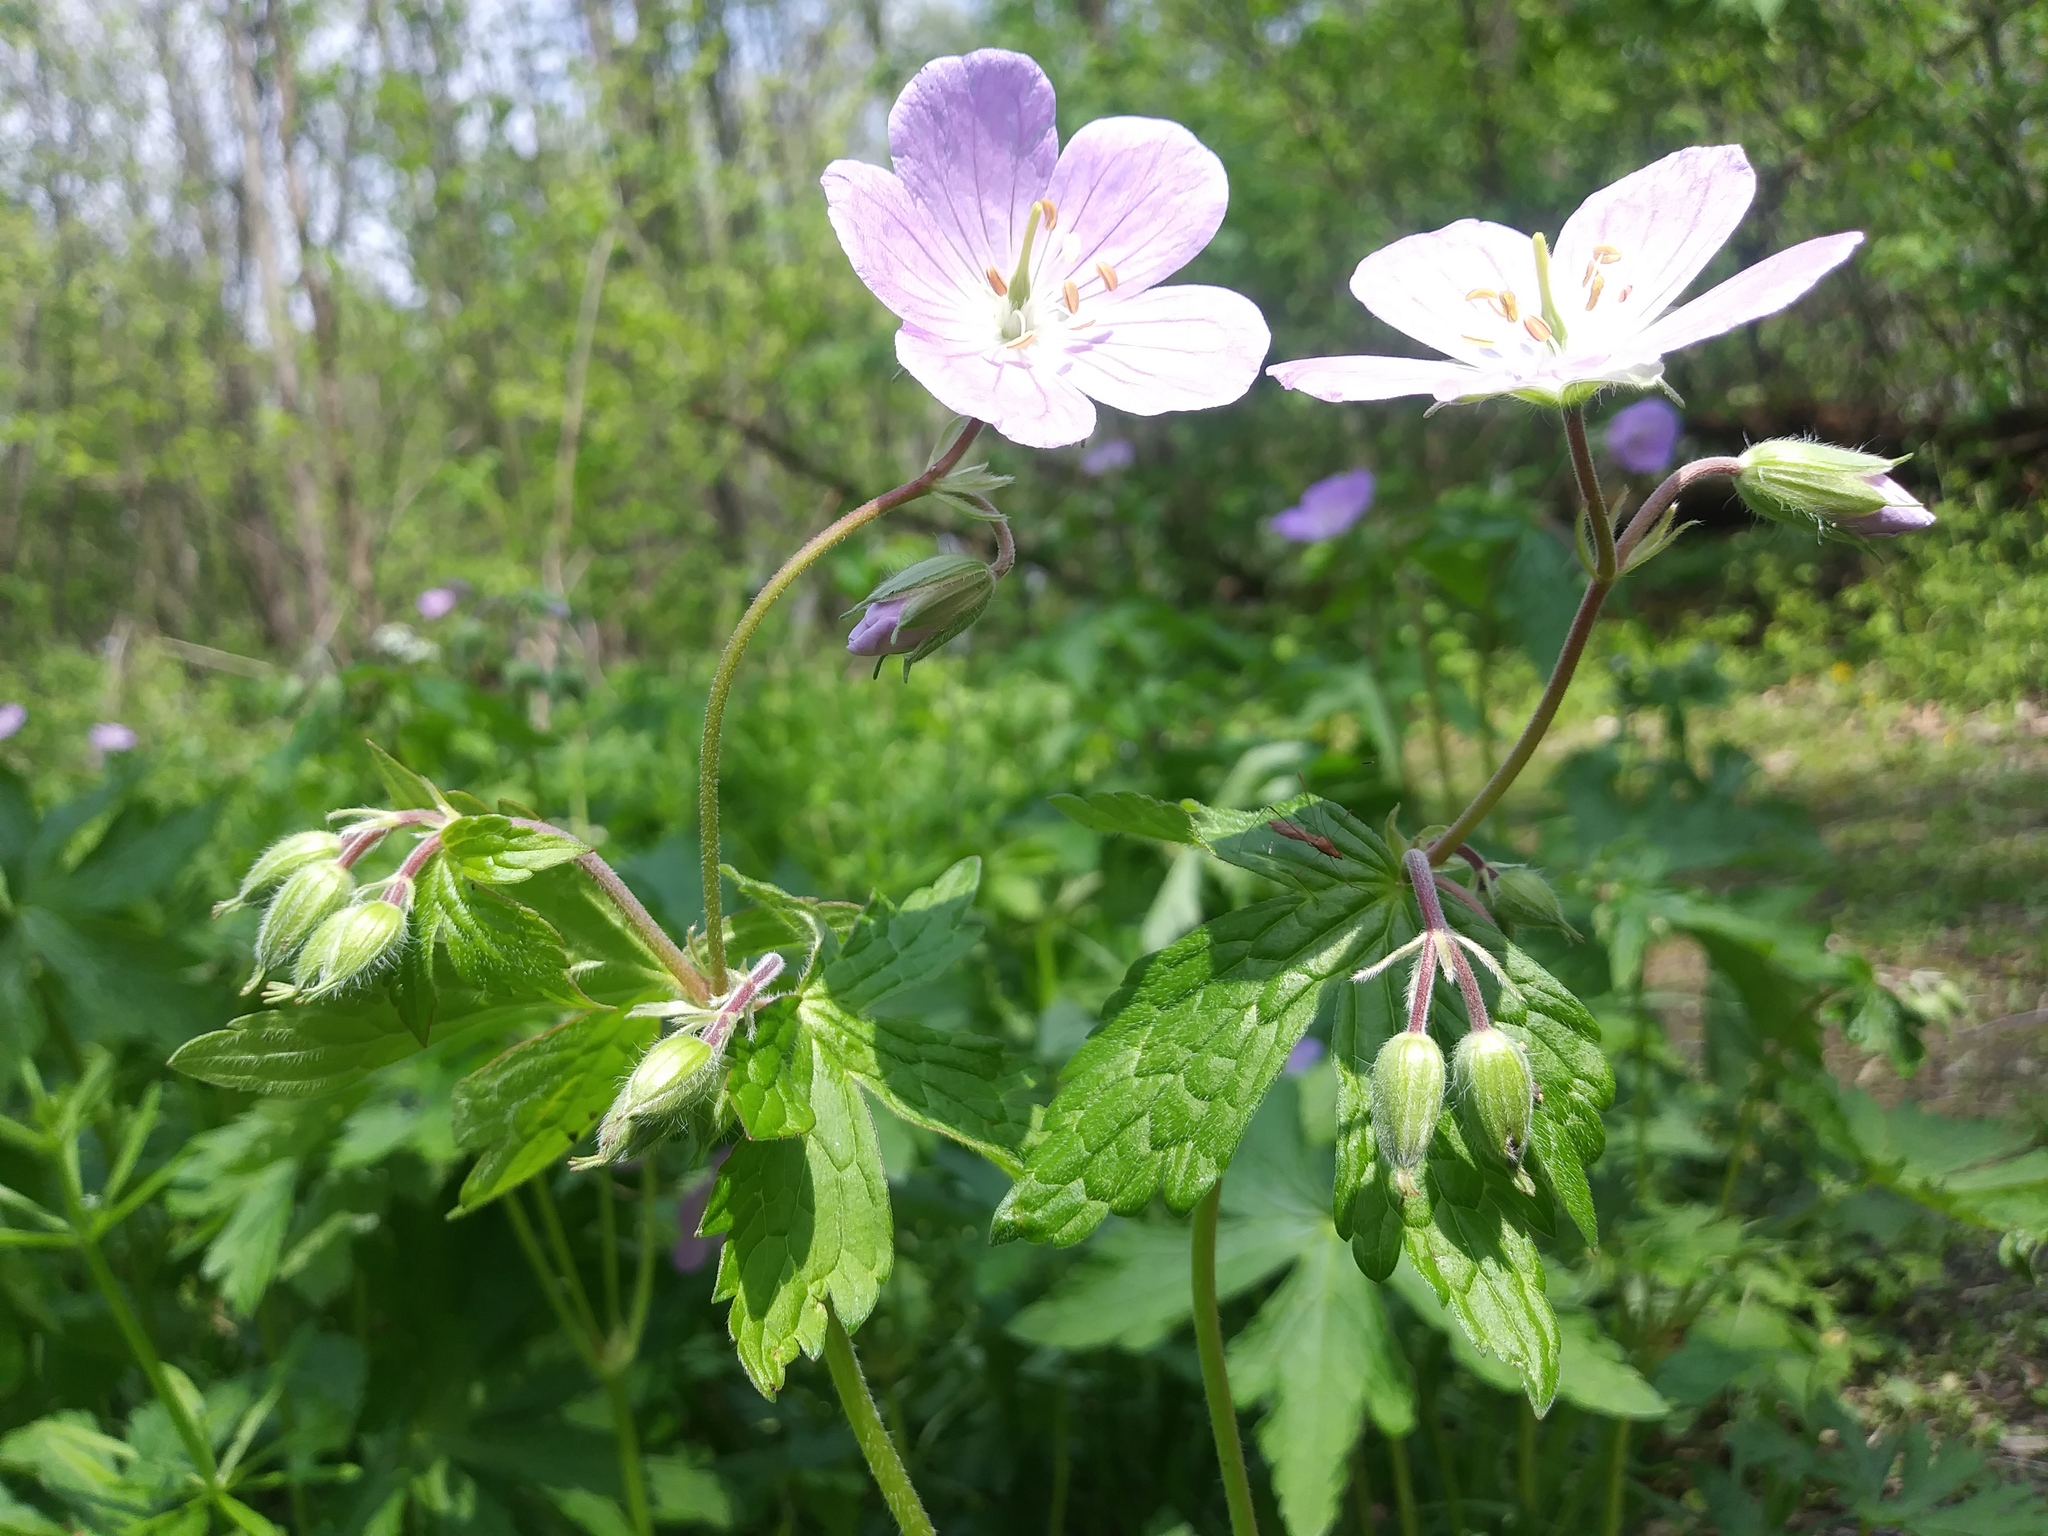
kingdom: Plantae
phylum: Tracheophyta
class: Magnoliopsida
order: Geraniales
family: Geraniaceae
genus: Geranium
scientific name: Geranium maculatum
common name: Spotted geranium
